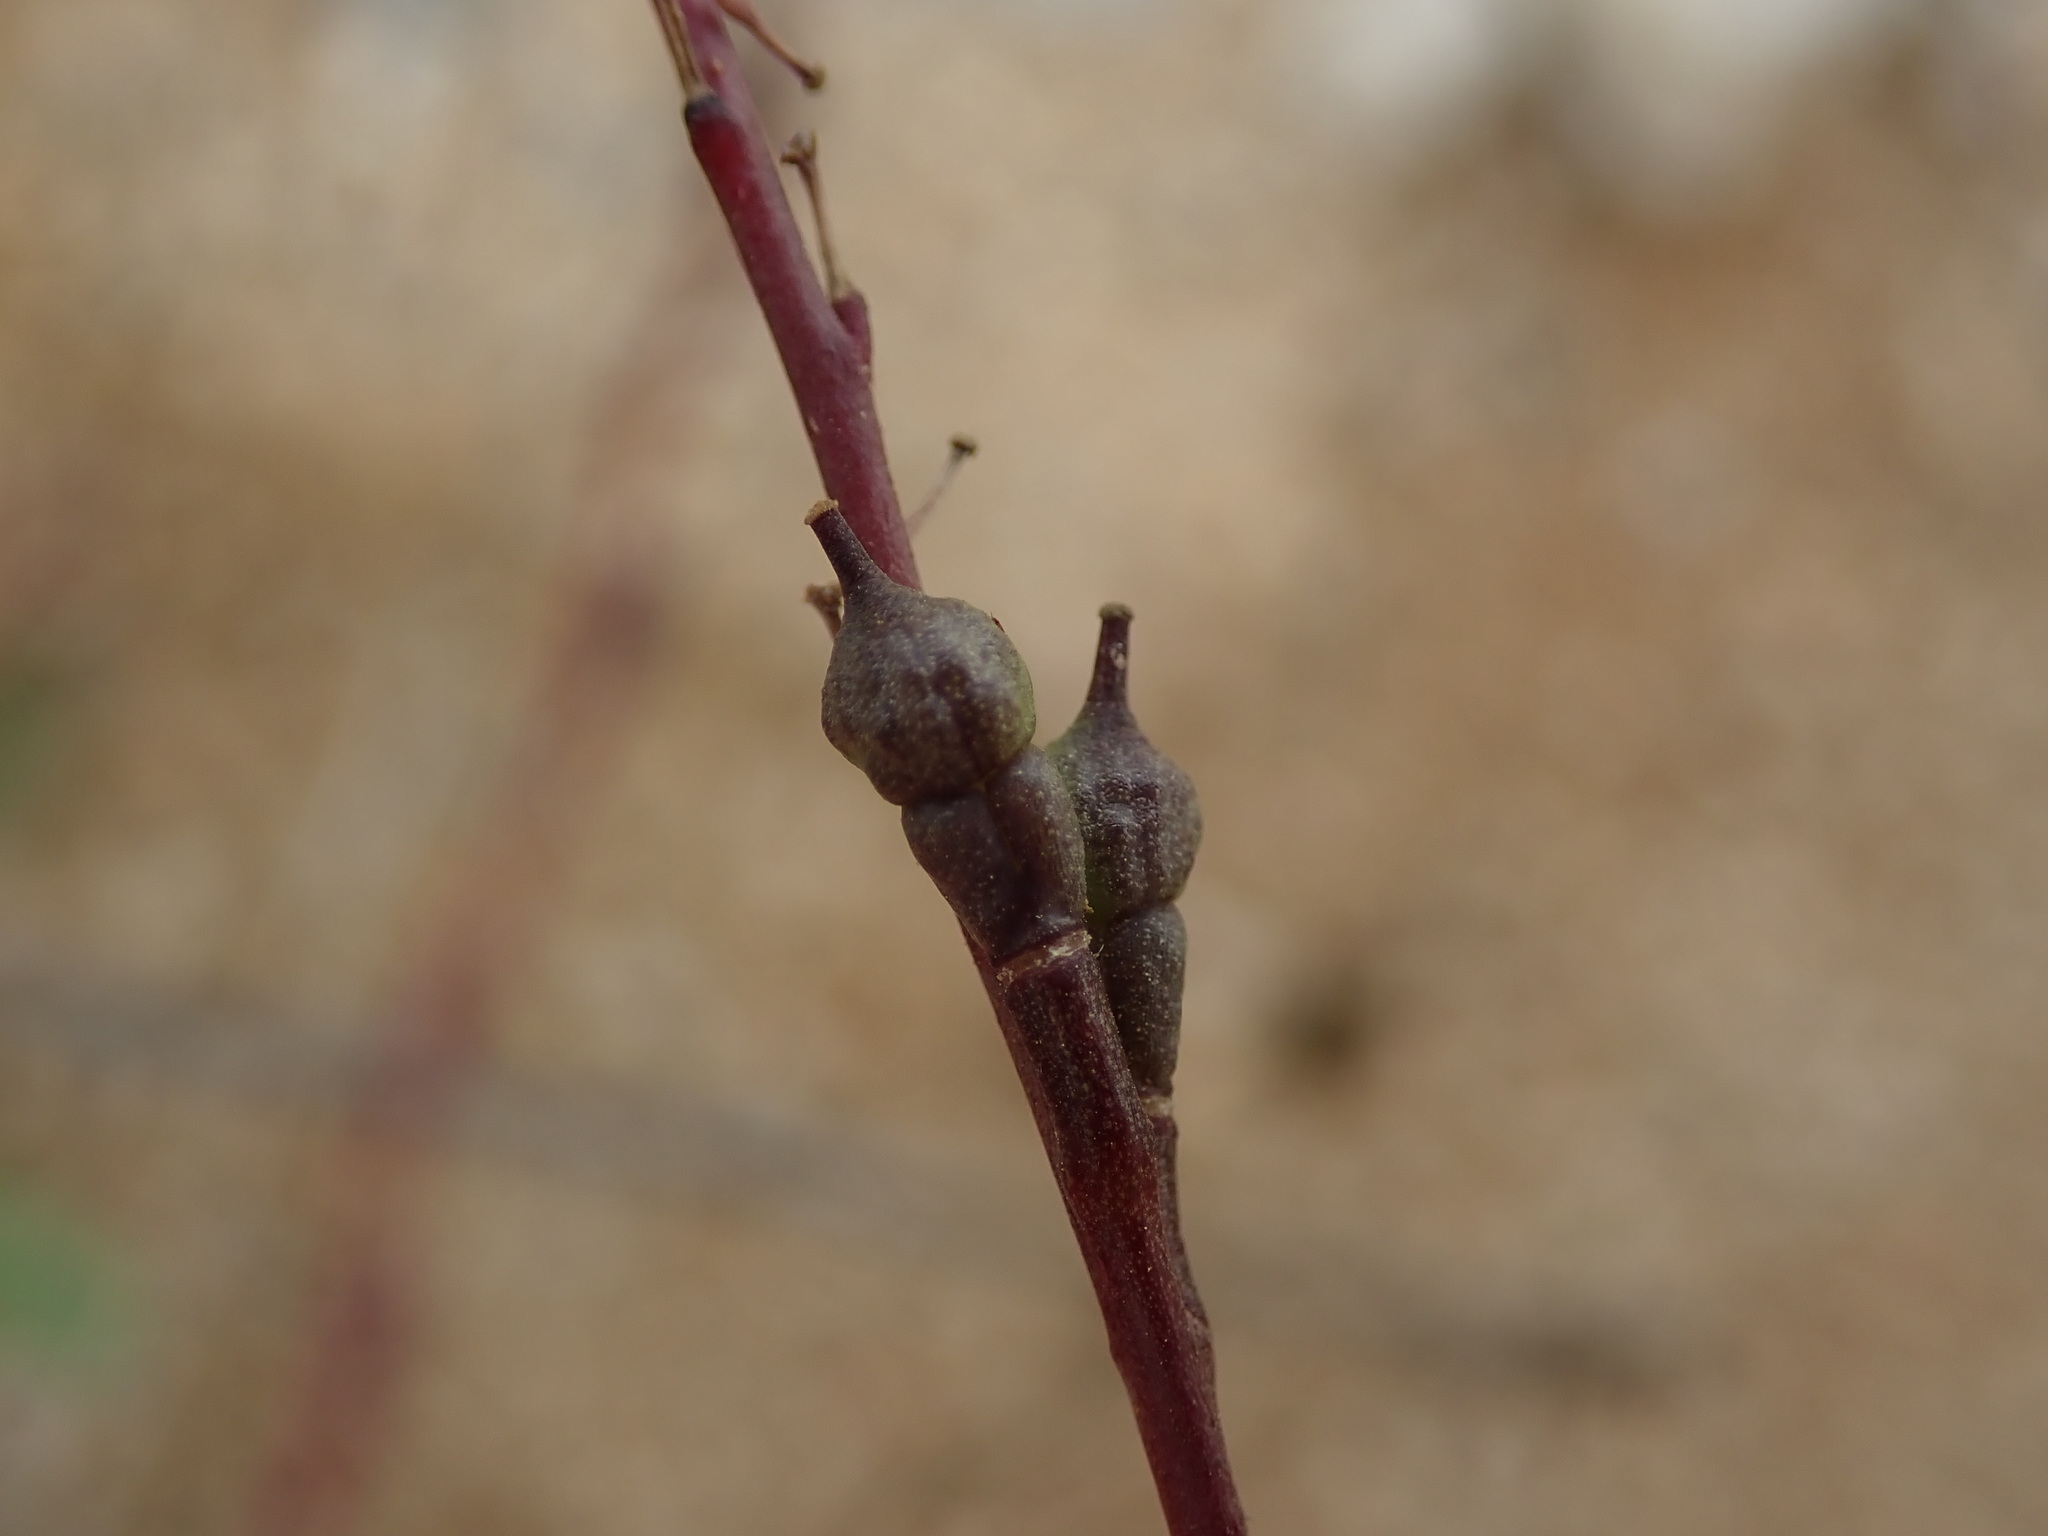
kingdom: Plantae
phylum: Tracheophyta
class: Magnoliopsida
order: Brassicales
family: Brassicaceae
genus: Rapistrum
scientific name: Rapistrum rugosum
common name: Annual bastardcabbage
